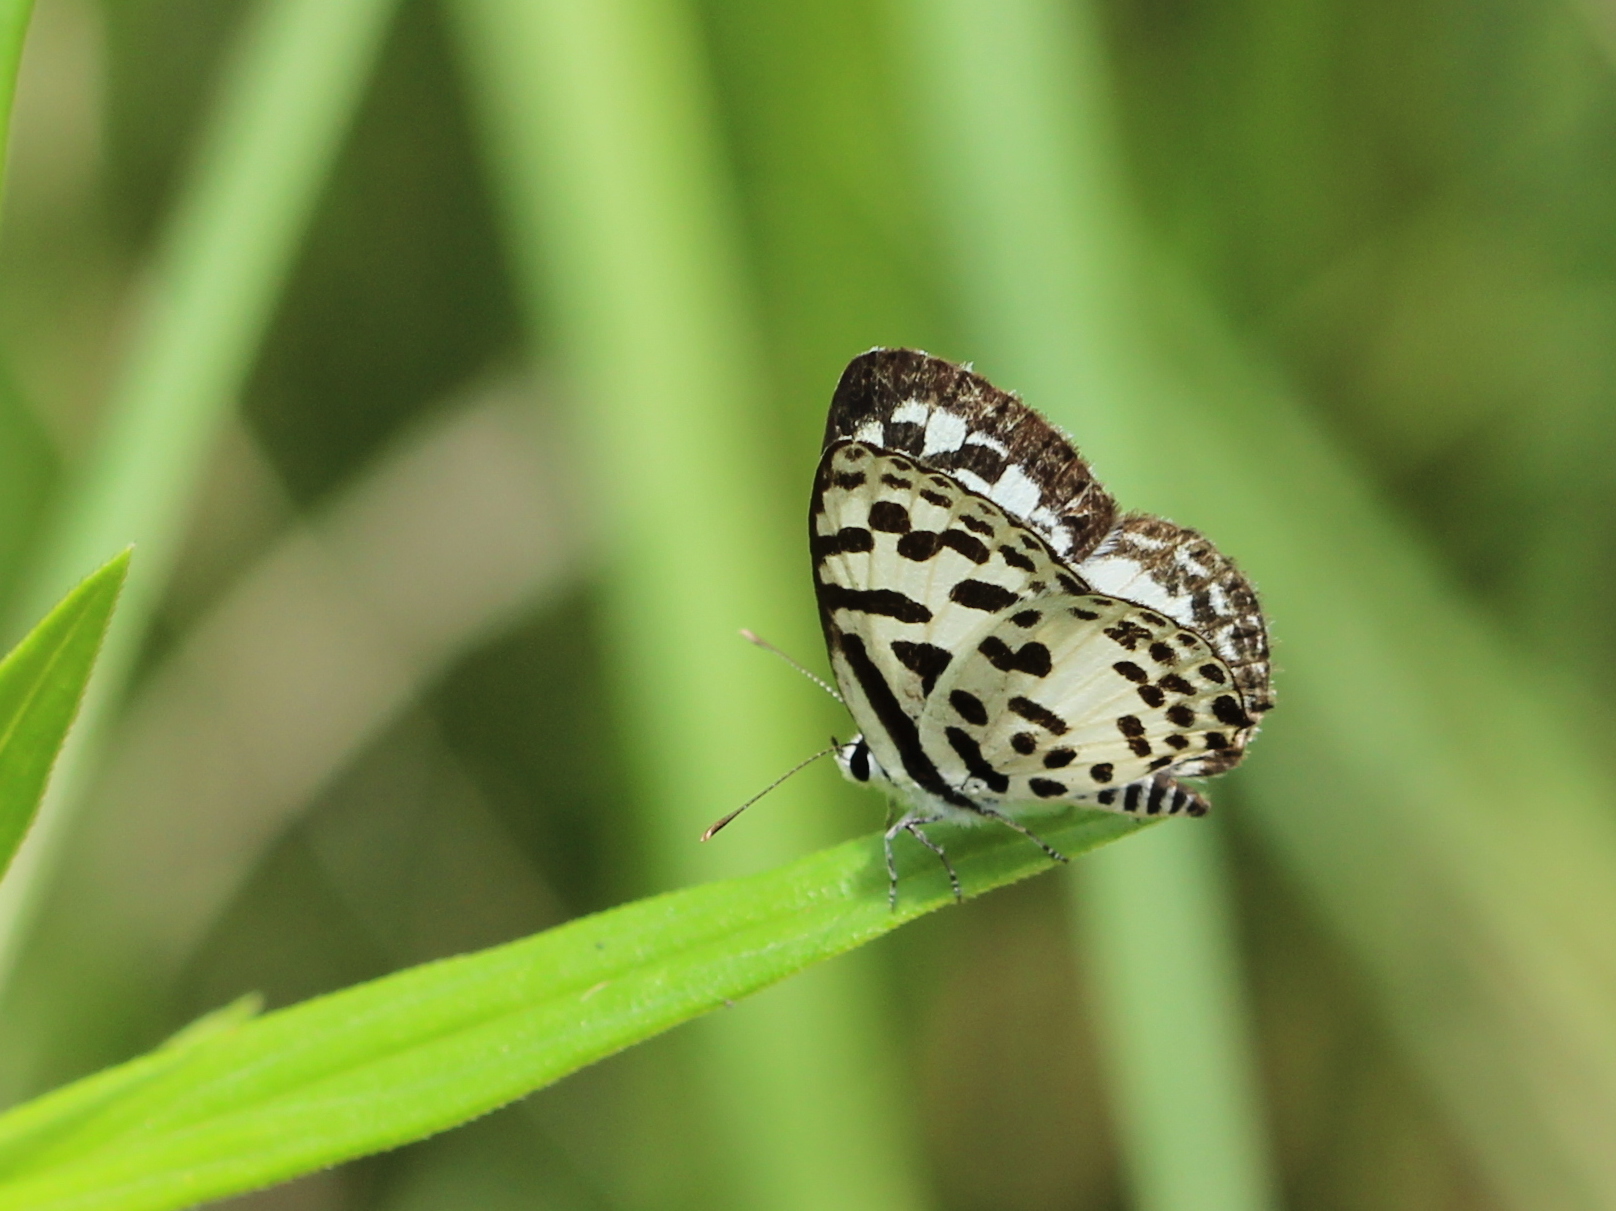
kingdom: Animalia
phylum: Arthropoda
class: Insecta
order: Lepidoptera
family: Lycaenidae
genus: Castalius
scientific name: Castalius rosimon
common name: Common pierrot
